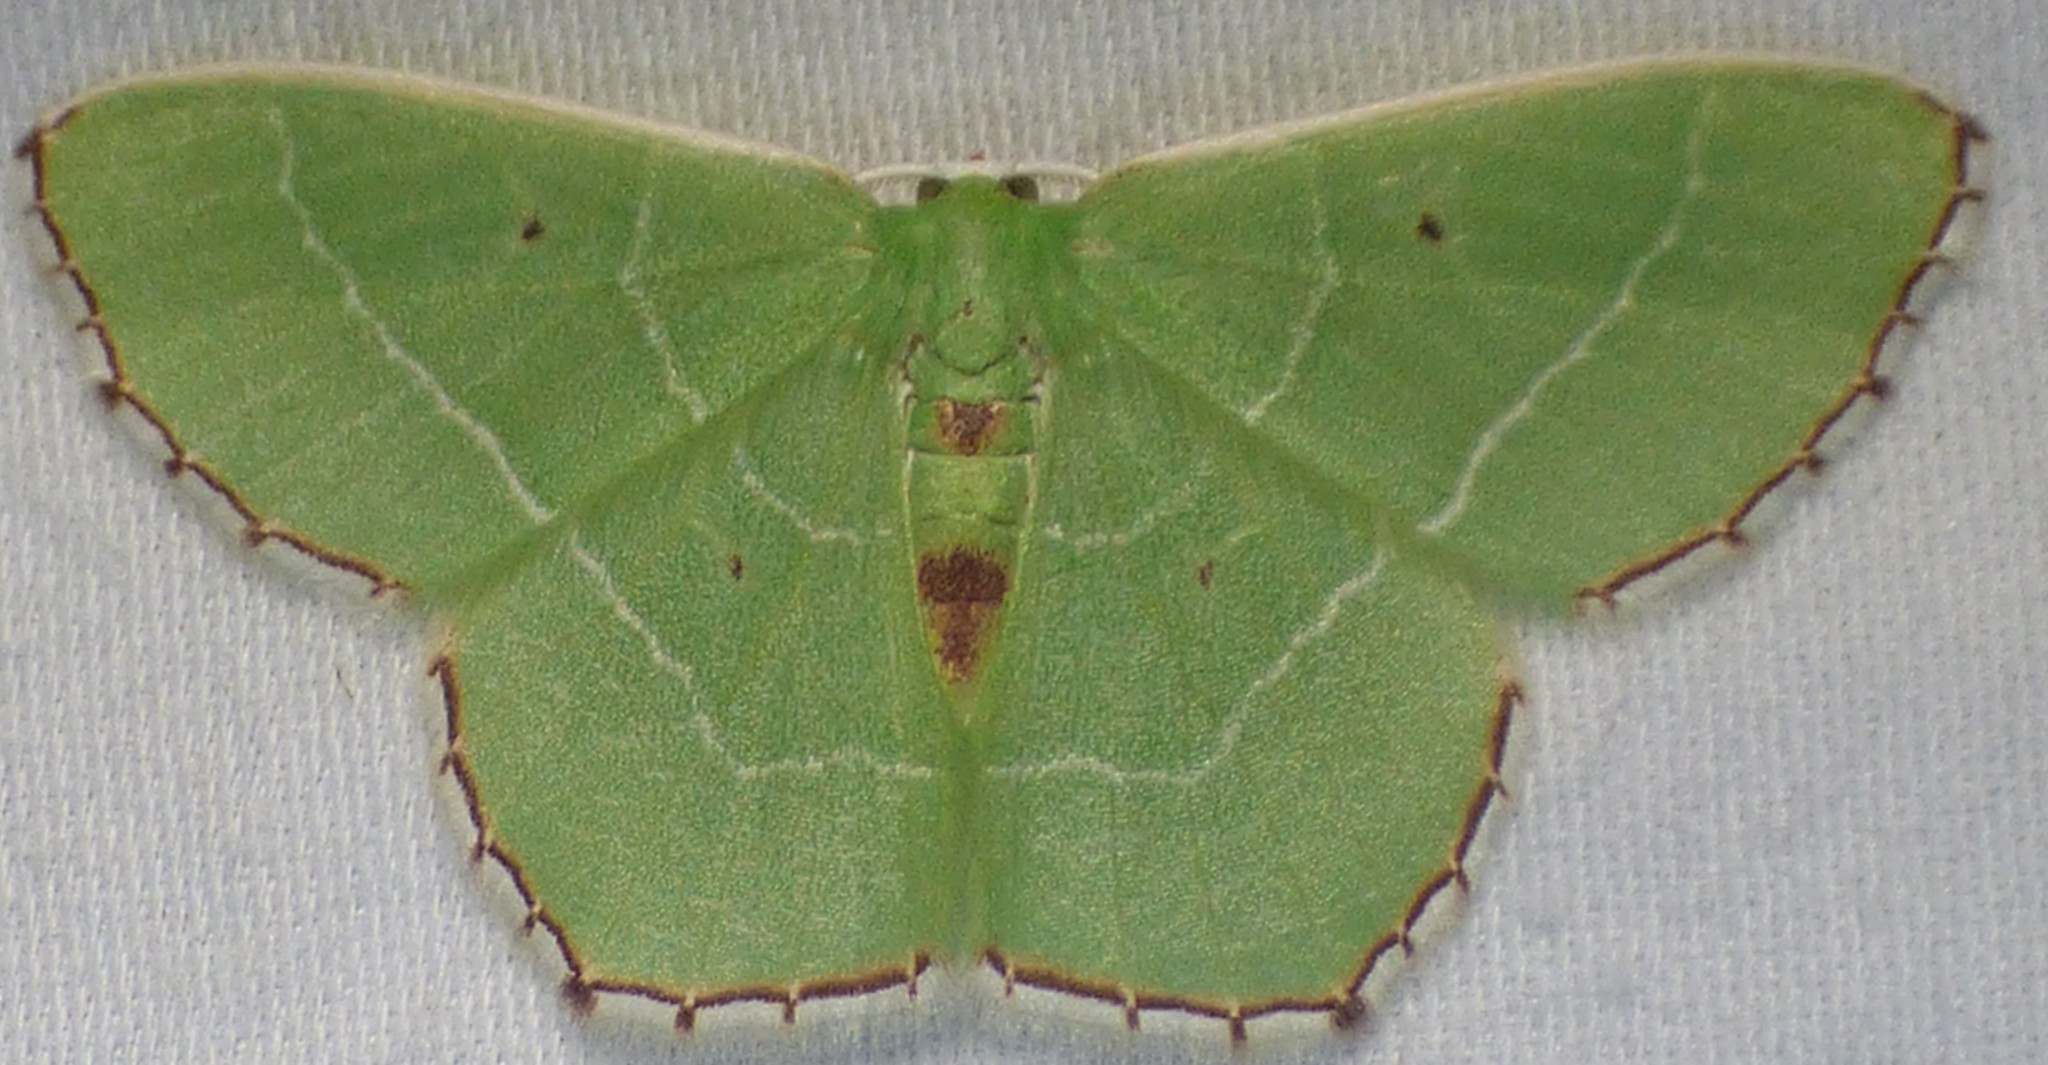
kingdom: Animalia
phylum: Arthropoda
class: Insecta
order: Lepidoptera
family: Geometridae
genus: Nemoria
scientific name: Nemoria saturiba
